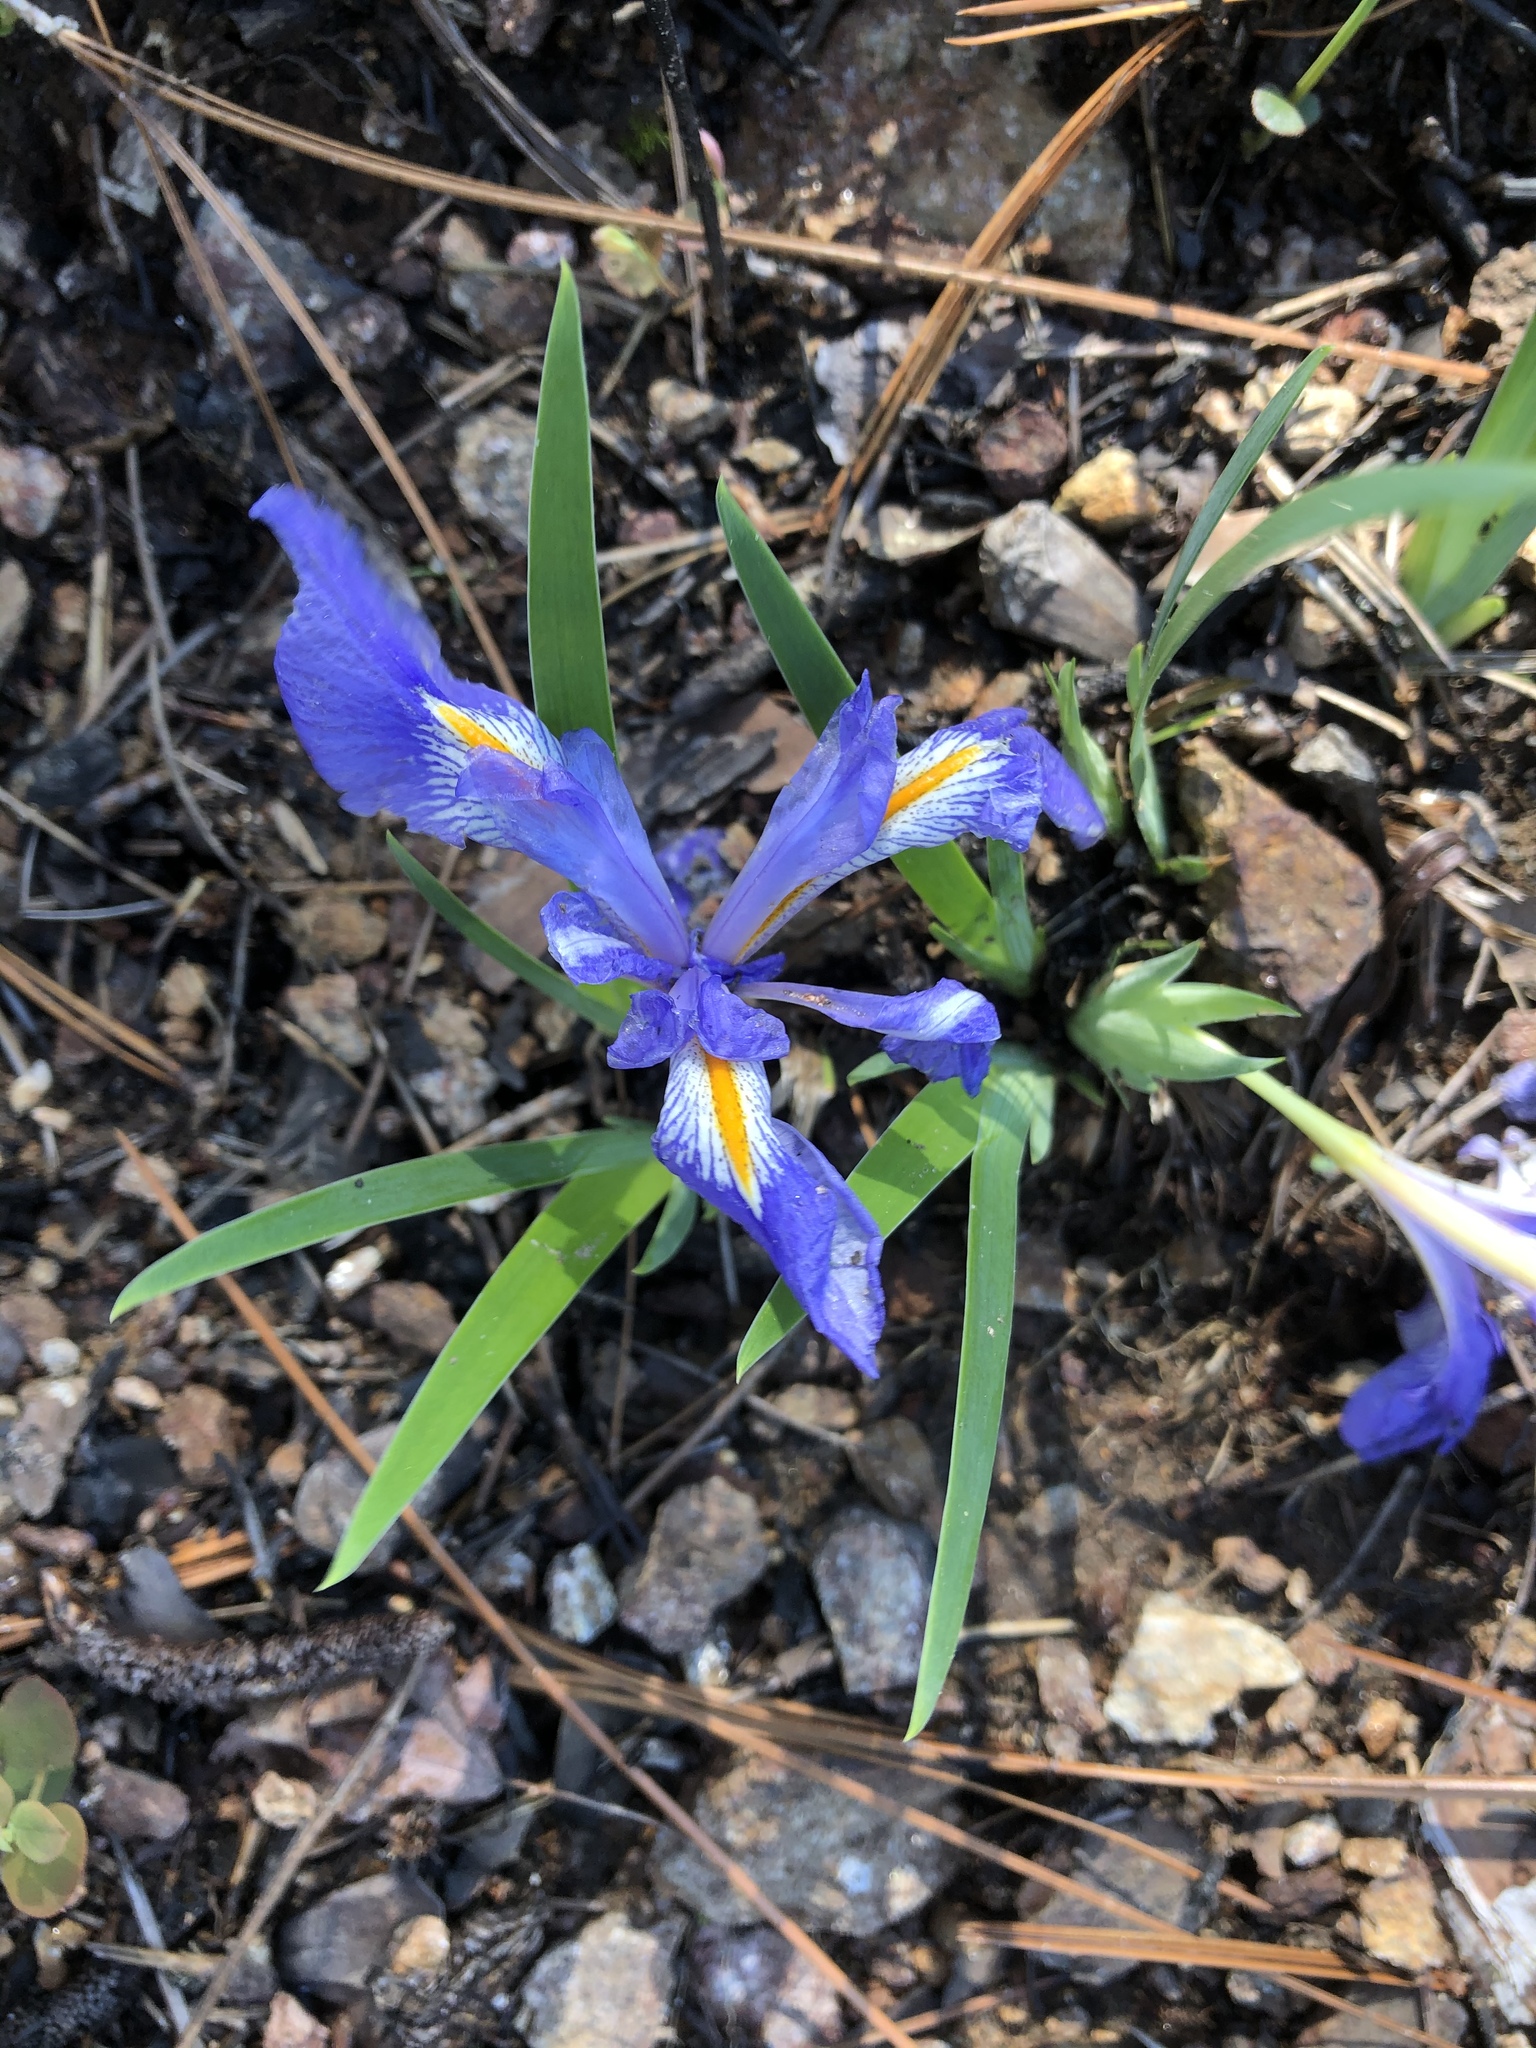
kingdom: Plantae
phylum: Tracheophyta
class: Liliopsida
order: Asparagales
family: Iridaceae
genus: Iris
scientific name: Iris verna
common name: Dwarf iris
